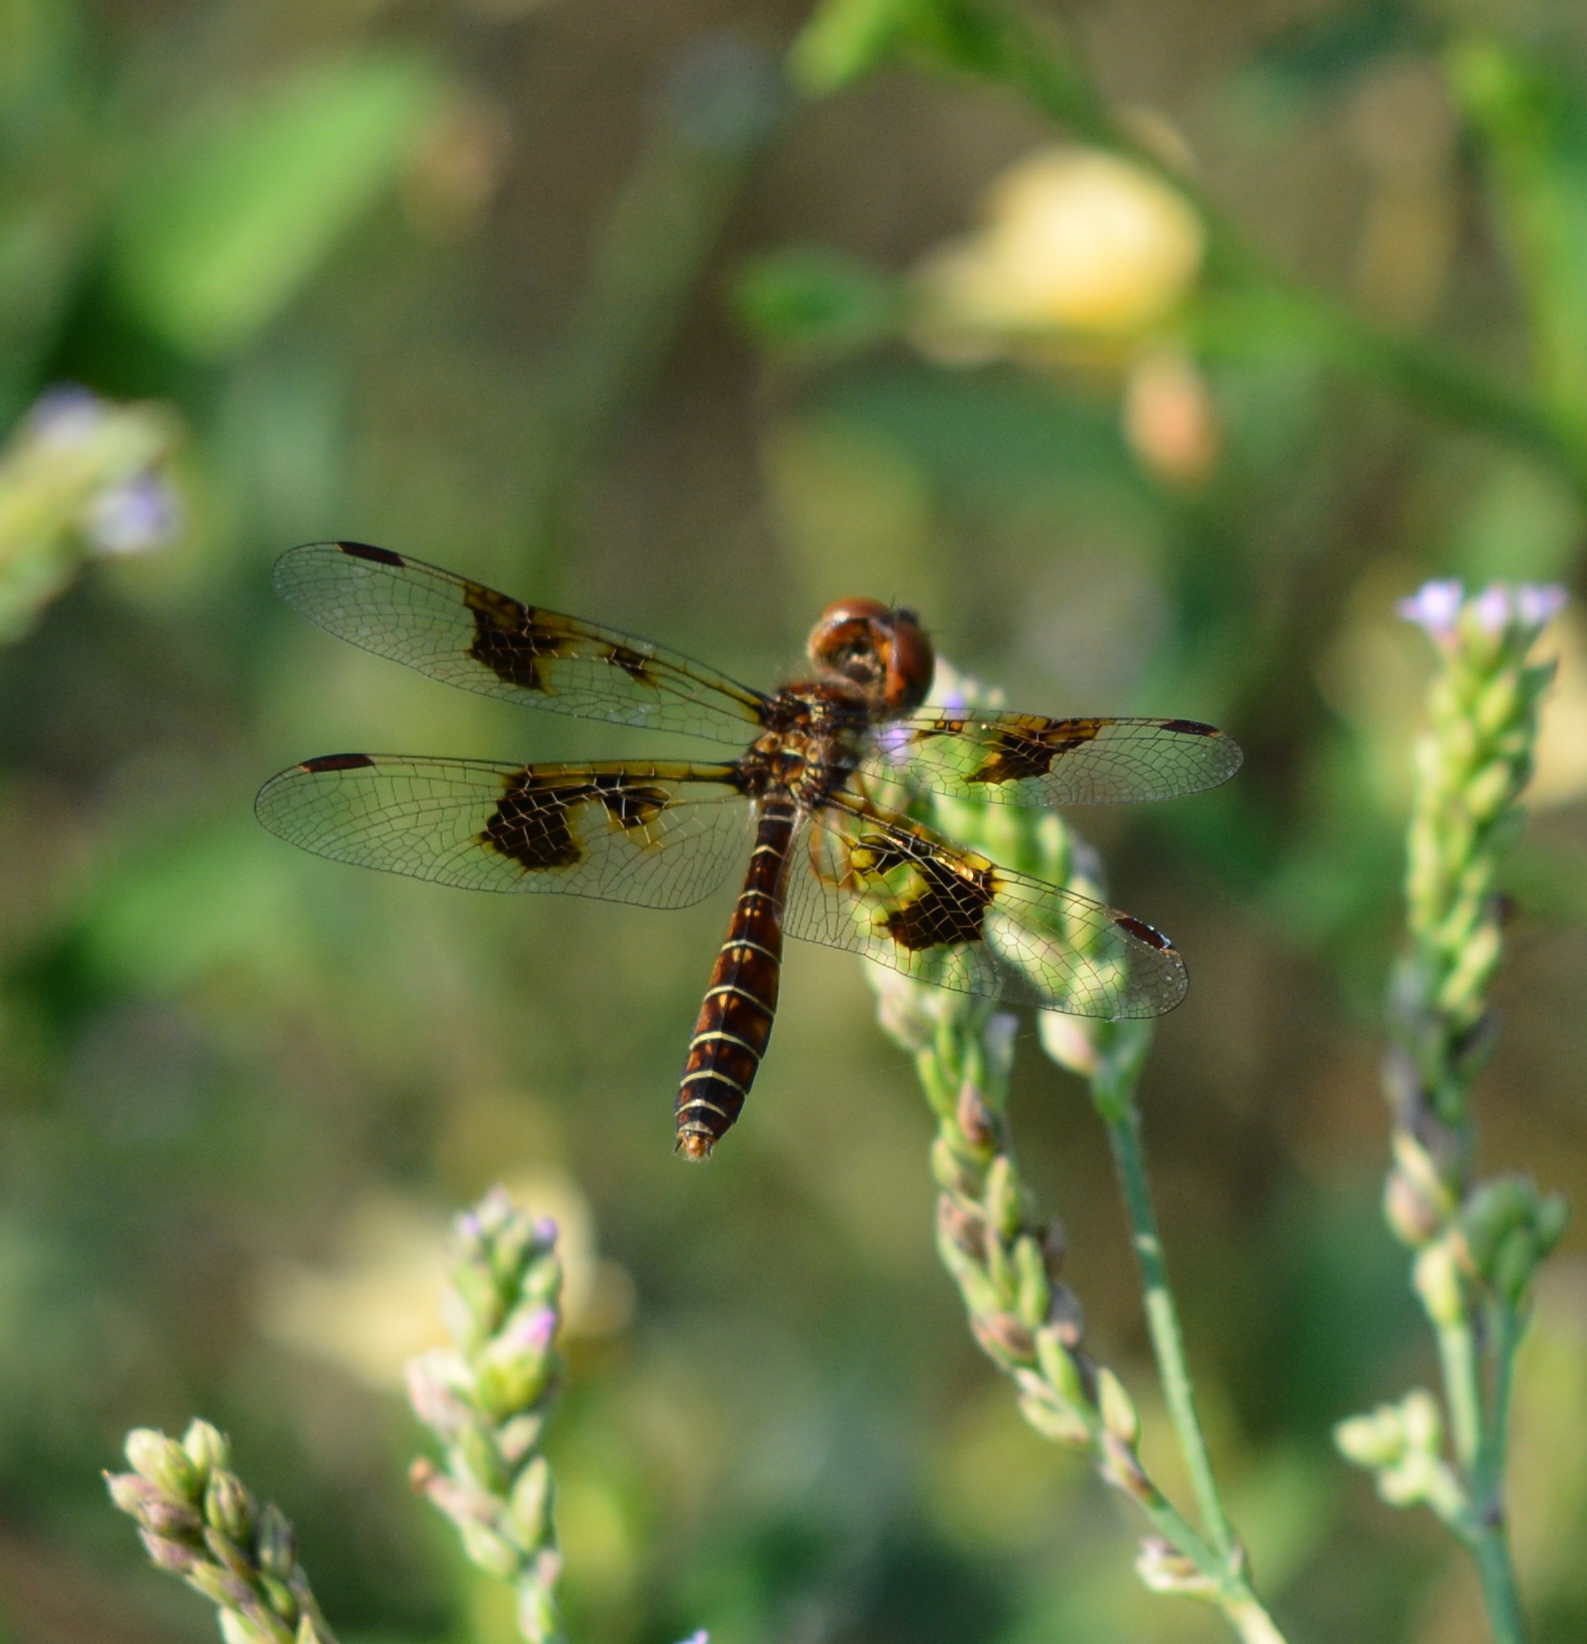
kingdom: Animalia
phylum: Arthropoda
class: Insecta
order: Odonata
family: Libellulidae
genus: Perithemis
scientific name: Perithemis tenera
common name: Eastern amberwing
